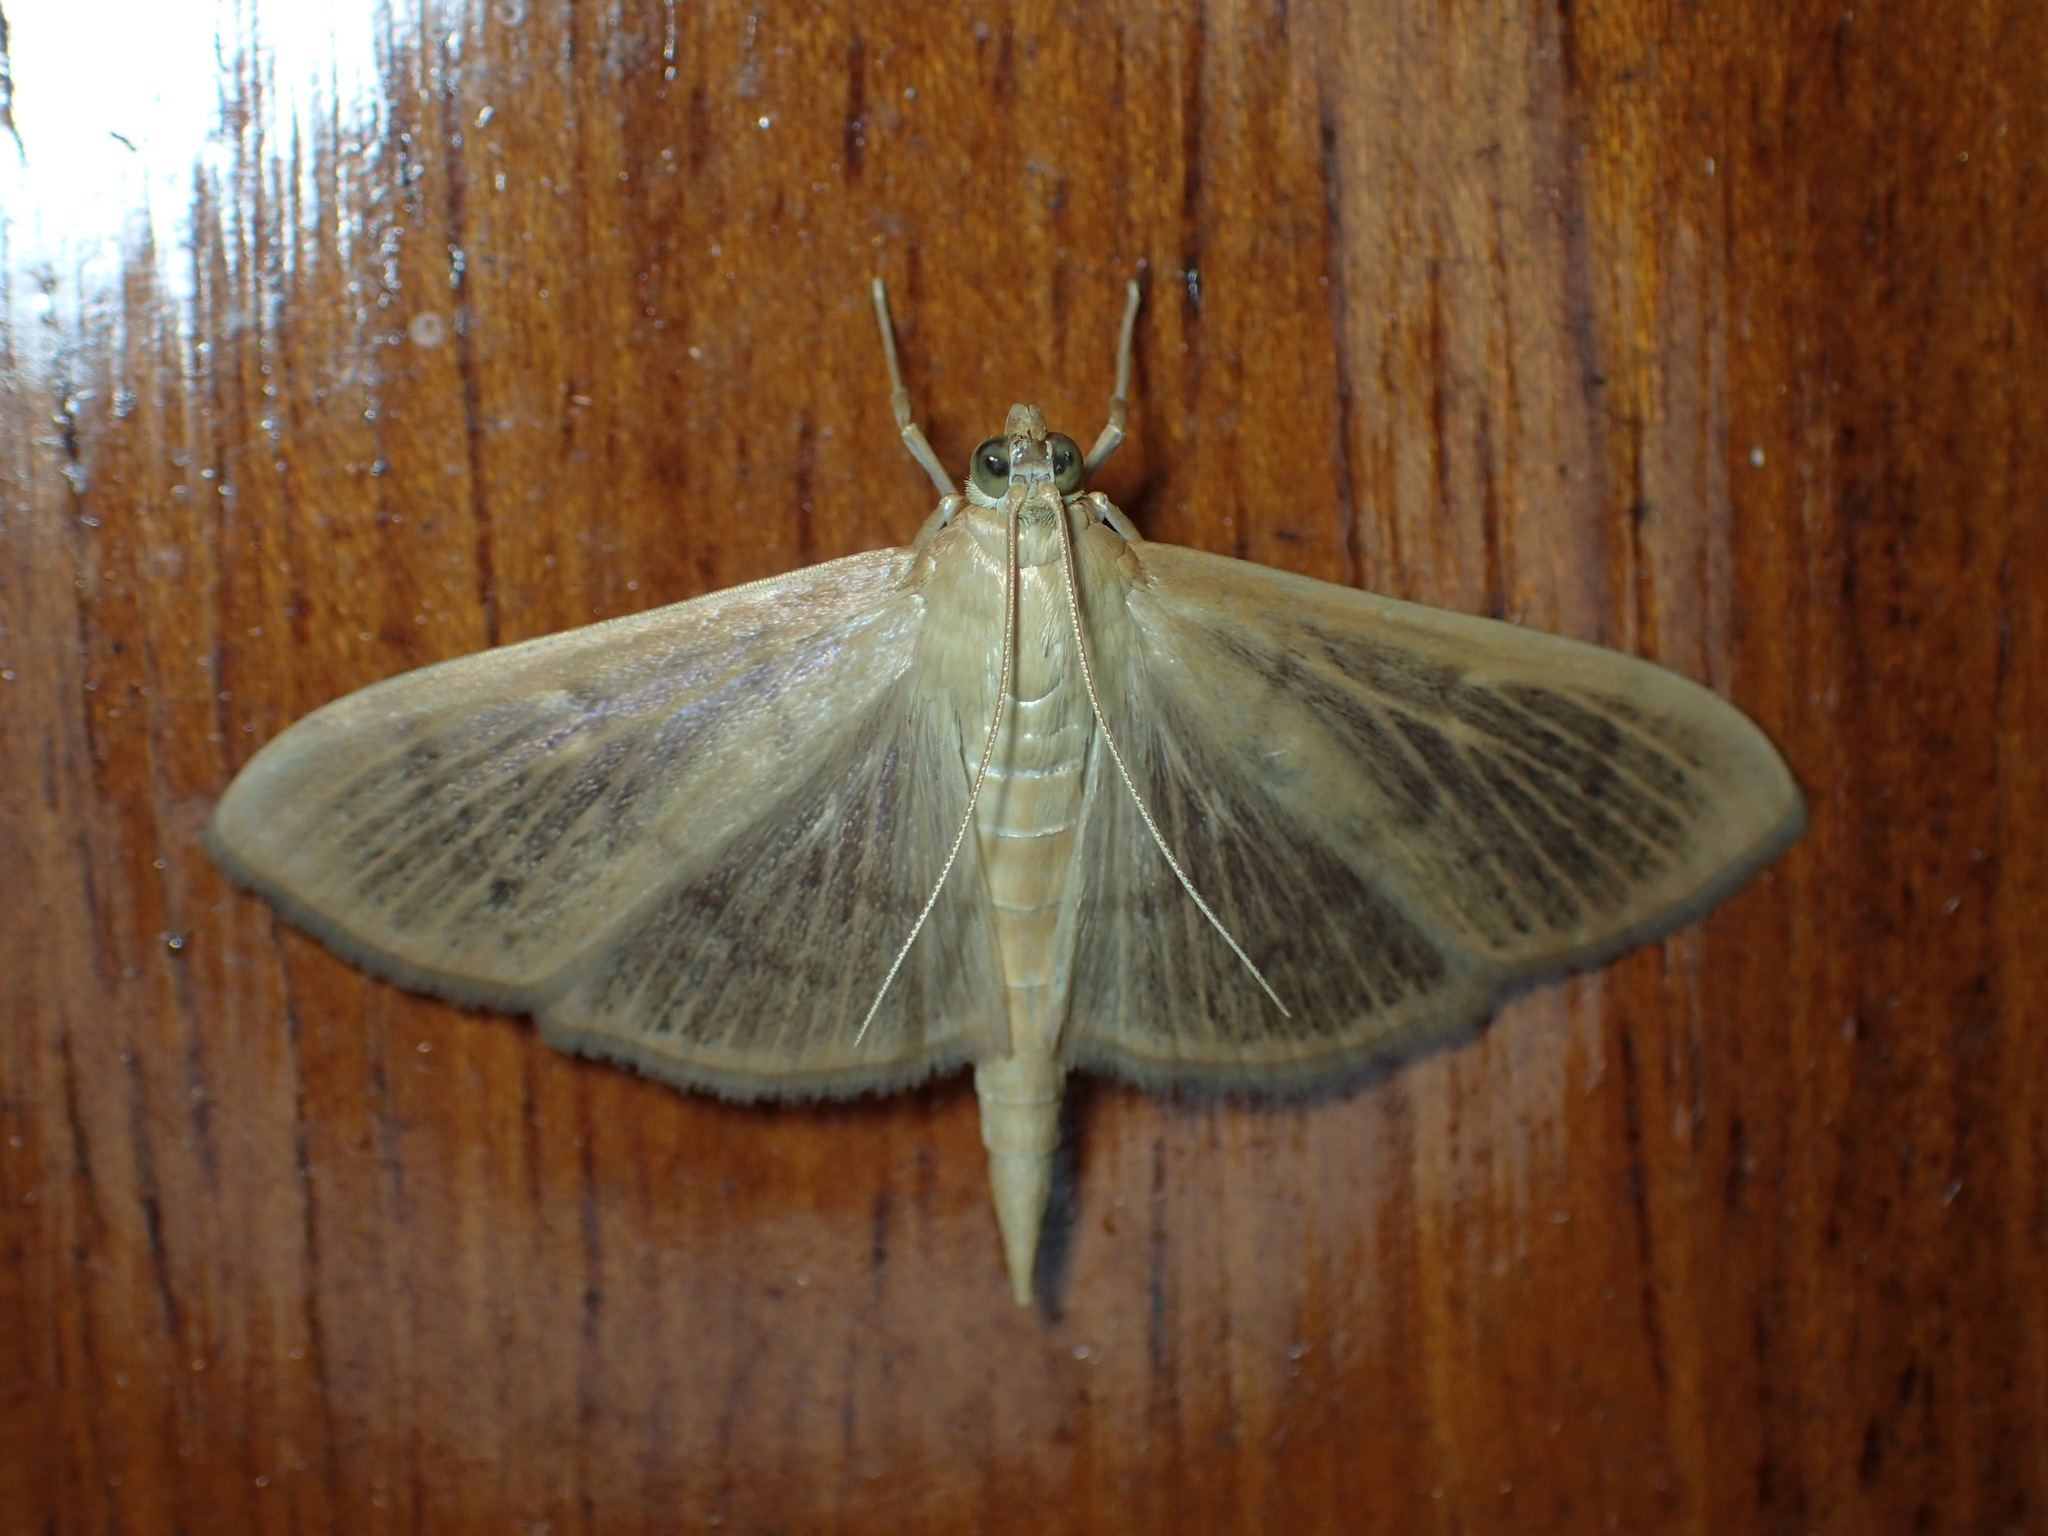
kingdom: Animalia
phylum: Arthropoda
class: Insecta
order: Lepidoptera
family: Crambidae
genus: Pleuroptya
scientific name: Pleuroptya silicalis
